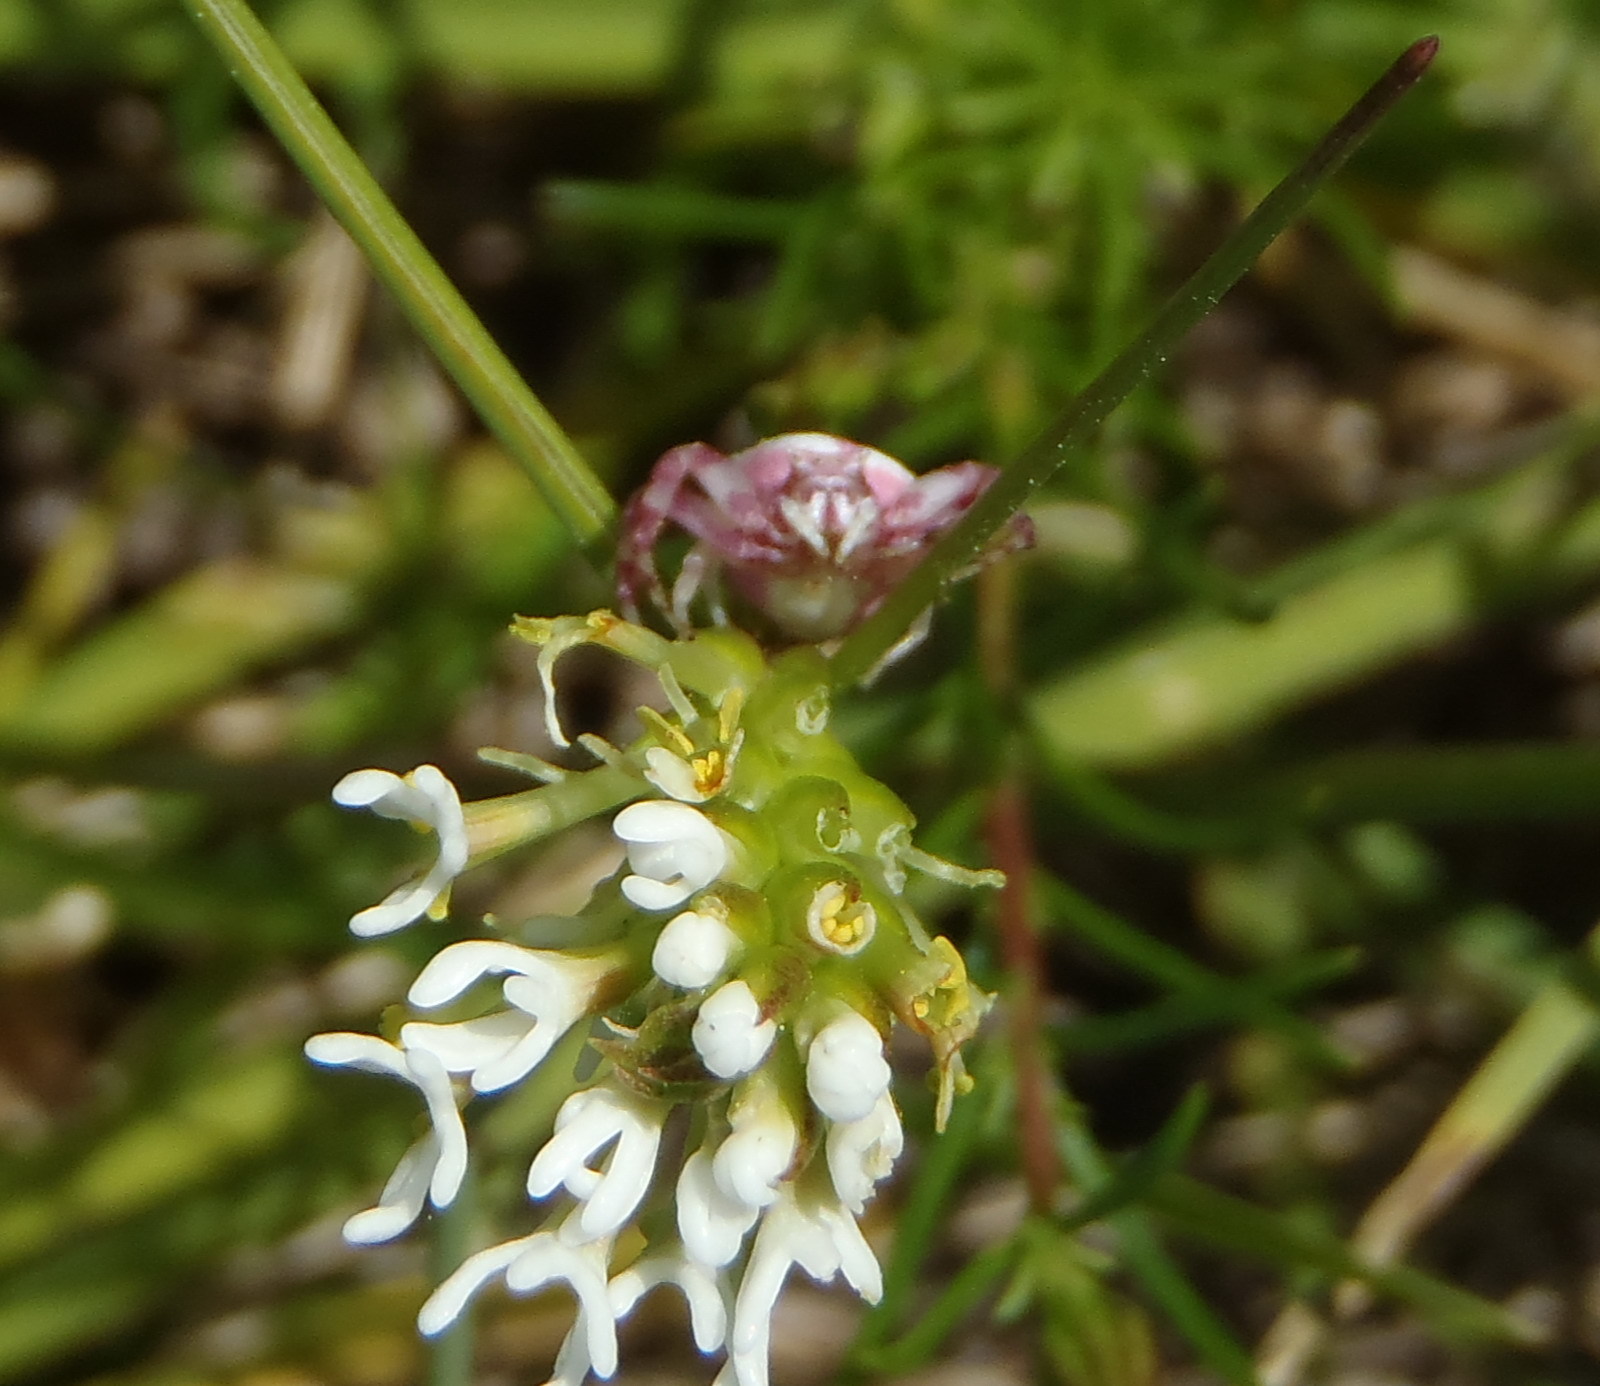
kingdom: Animalia
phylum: Arthropoda
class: Arachnida
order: Araneae
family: Thomisidae
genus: Thomisus
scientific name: Thomisus citrinellus
